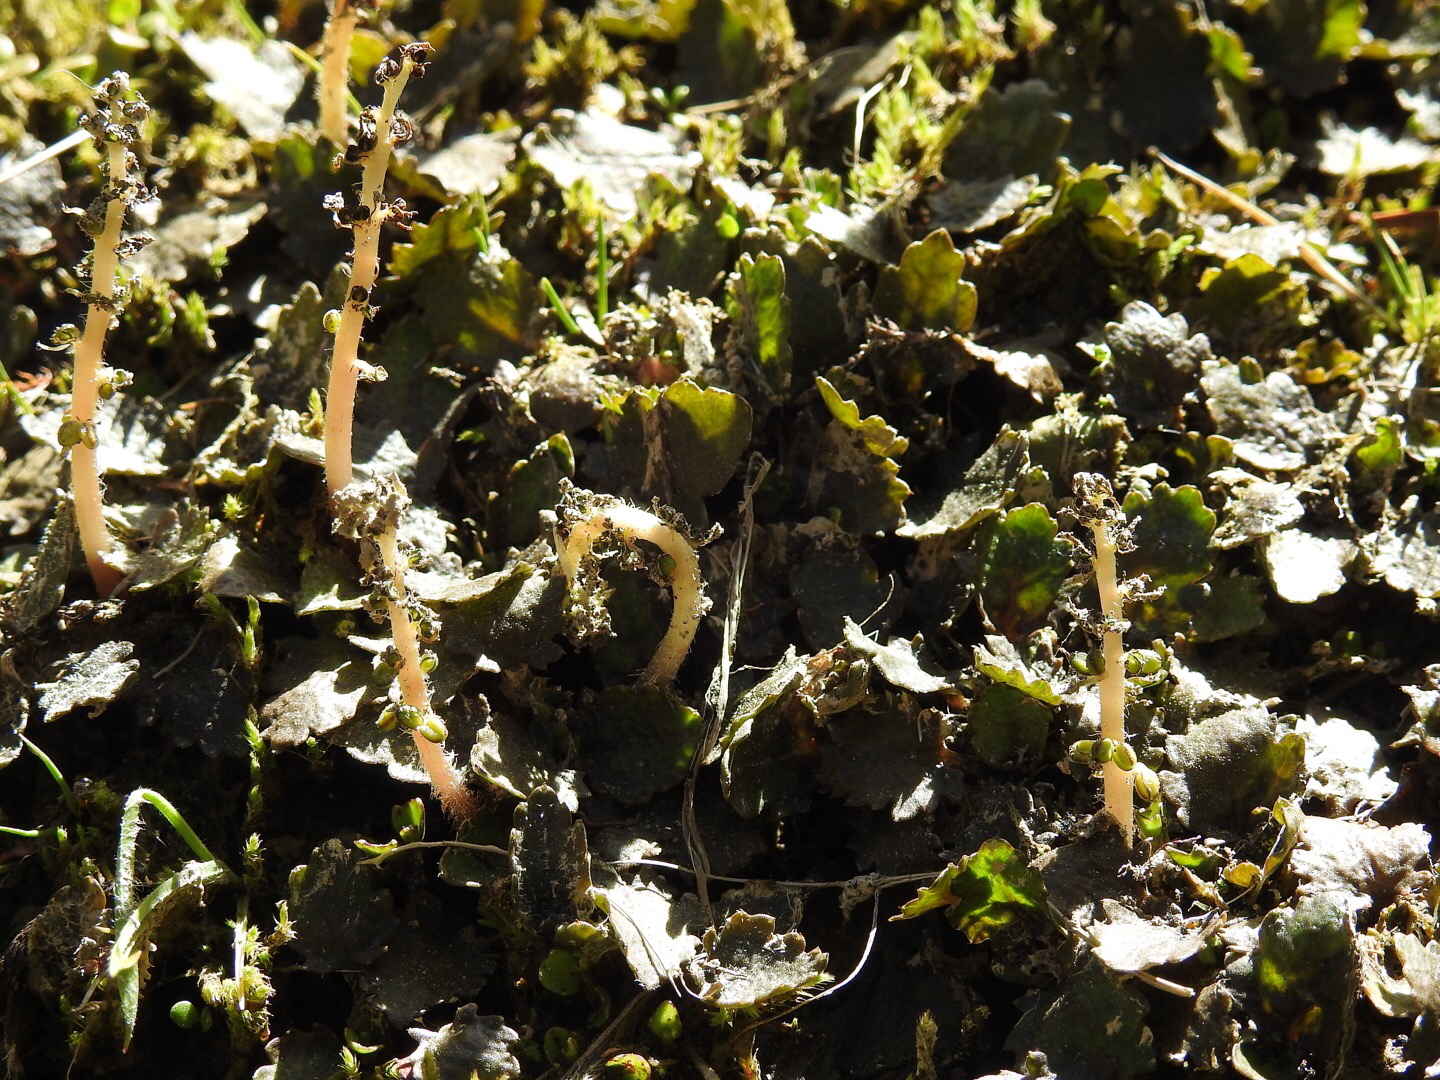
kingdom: Plantae
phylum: Tracheophyta
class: Magnoliopsida
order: Gunnerales
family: Gunneraceae
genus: Gunnera
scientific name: Gunnera dentata
